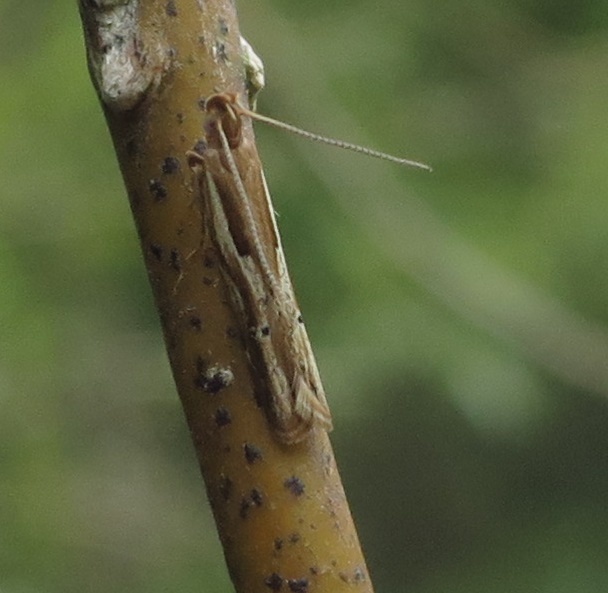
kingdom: Animalia
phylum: Arthropoda
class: Insecta
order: Lepidoptera
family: Depressariidae
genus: Eutorna
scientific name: Eutorna symmorpha
